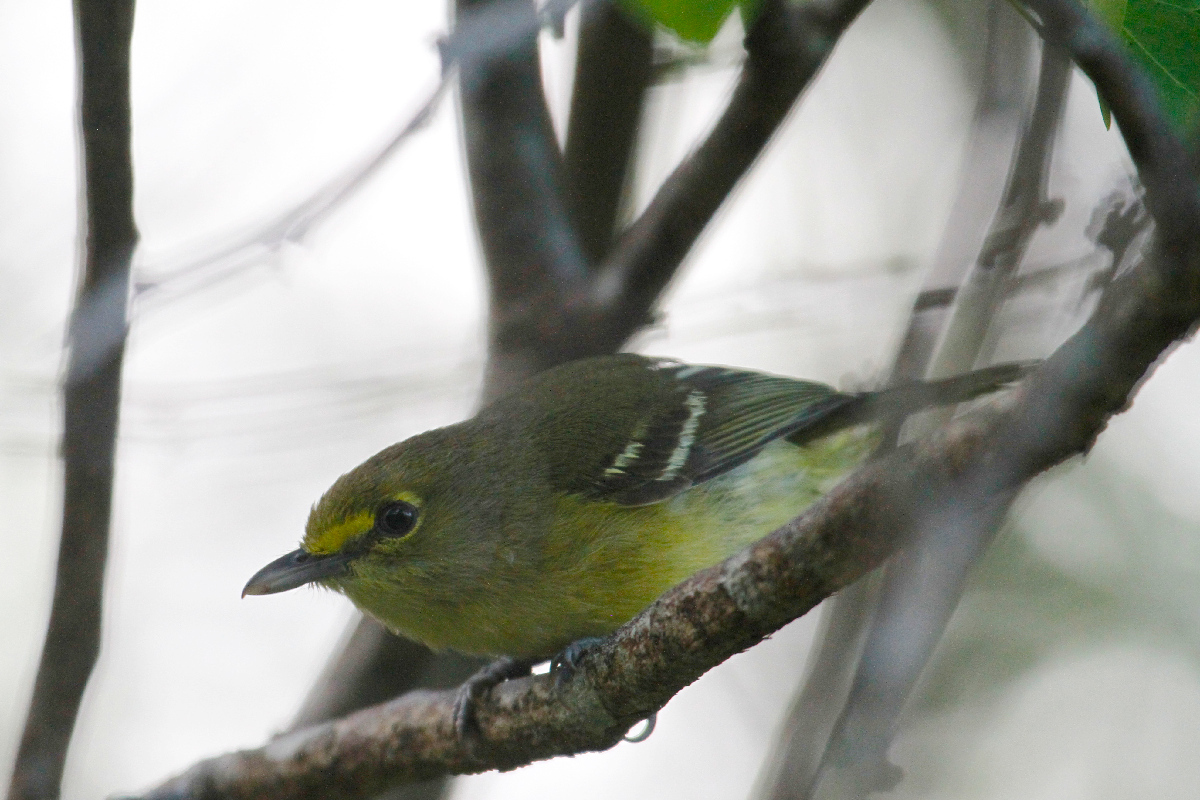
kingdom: Animalia
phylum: Chordata
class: Aves
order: Passeriformes
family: Vireonidae
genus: Vireo
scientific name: Vireo crassirostris
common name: Thick-billed vireo
